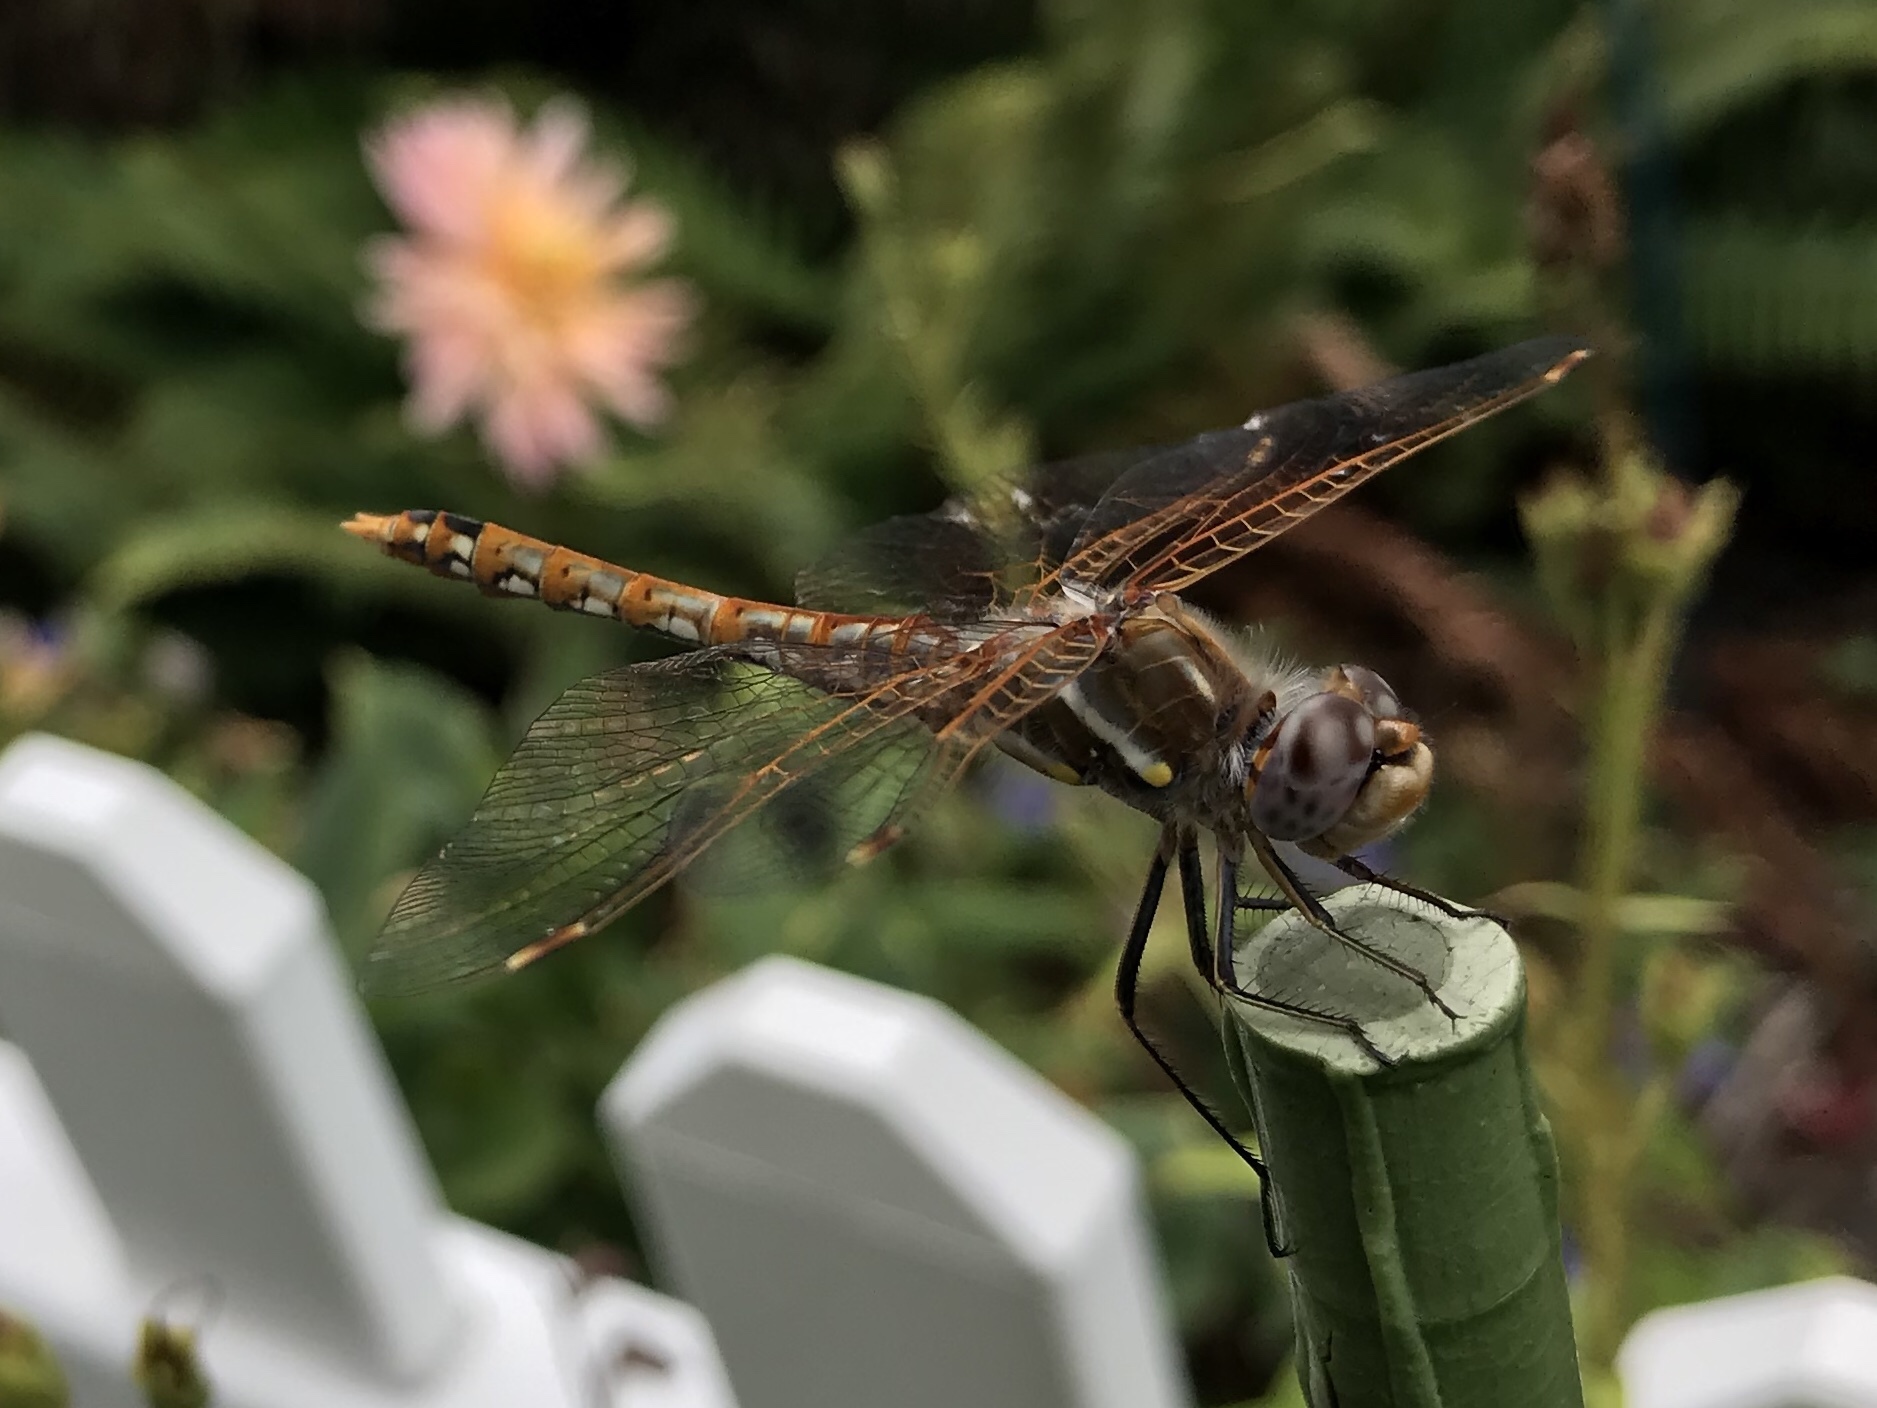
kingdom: Animalia
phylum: Arthropoda
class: Insecta
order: Odonata
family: Libellulidae
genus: Sympetrum
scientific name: Sympetrum corruptum
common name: Variegated meadowhawk
